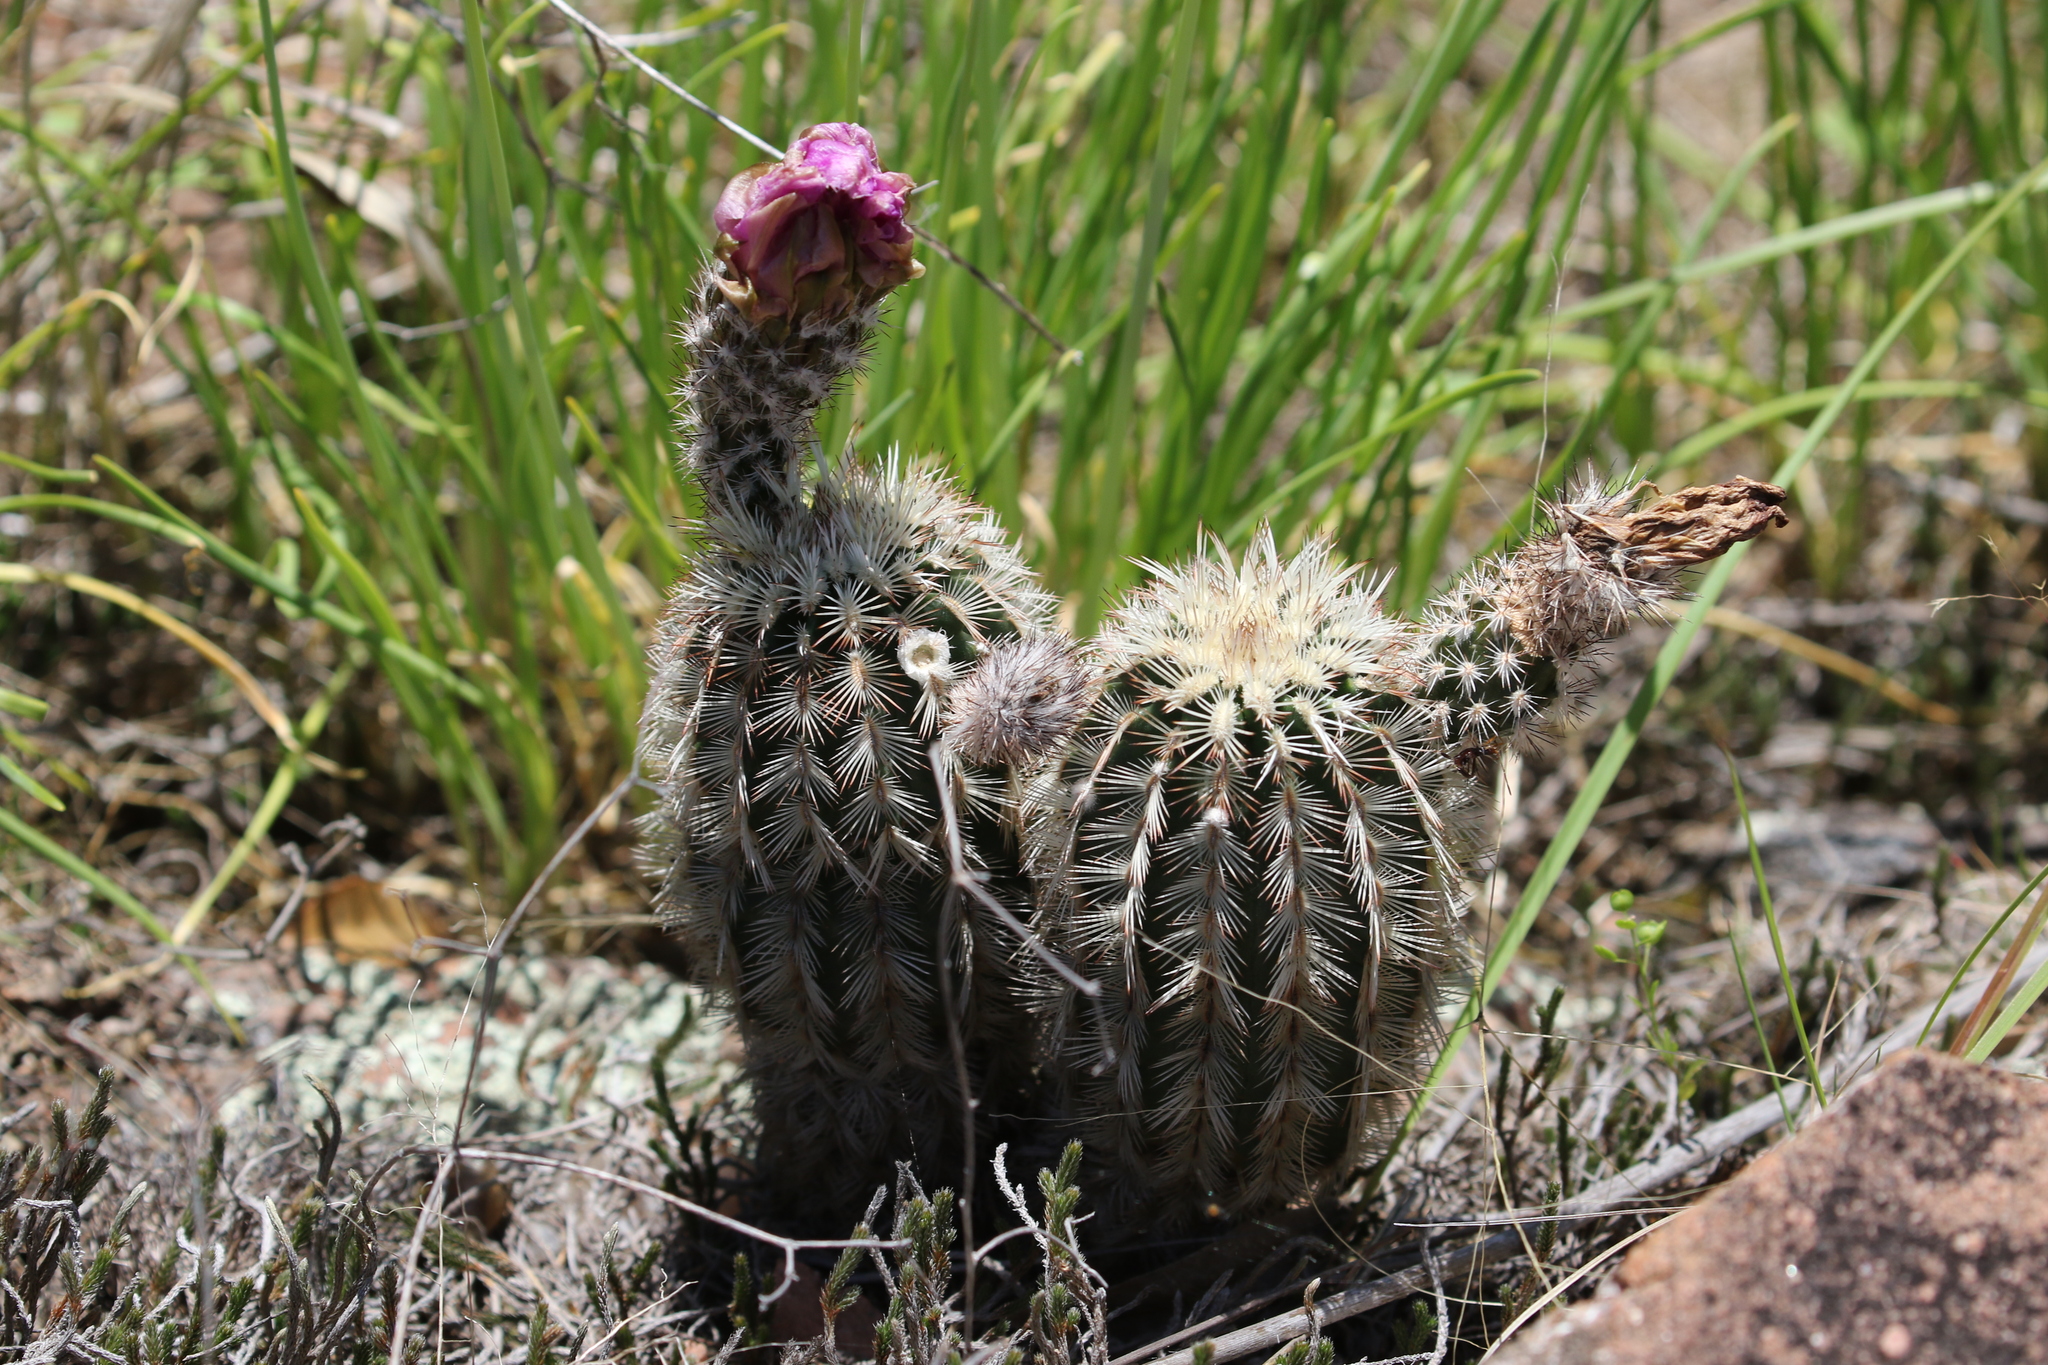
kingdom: Plantae
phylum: Tracheophyta
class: Magnoliopsida
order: Caryophyllales
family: Cactaceae
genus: Echinocereus
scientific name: Echinocereus reichenbachii
